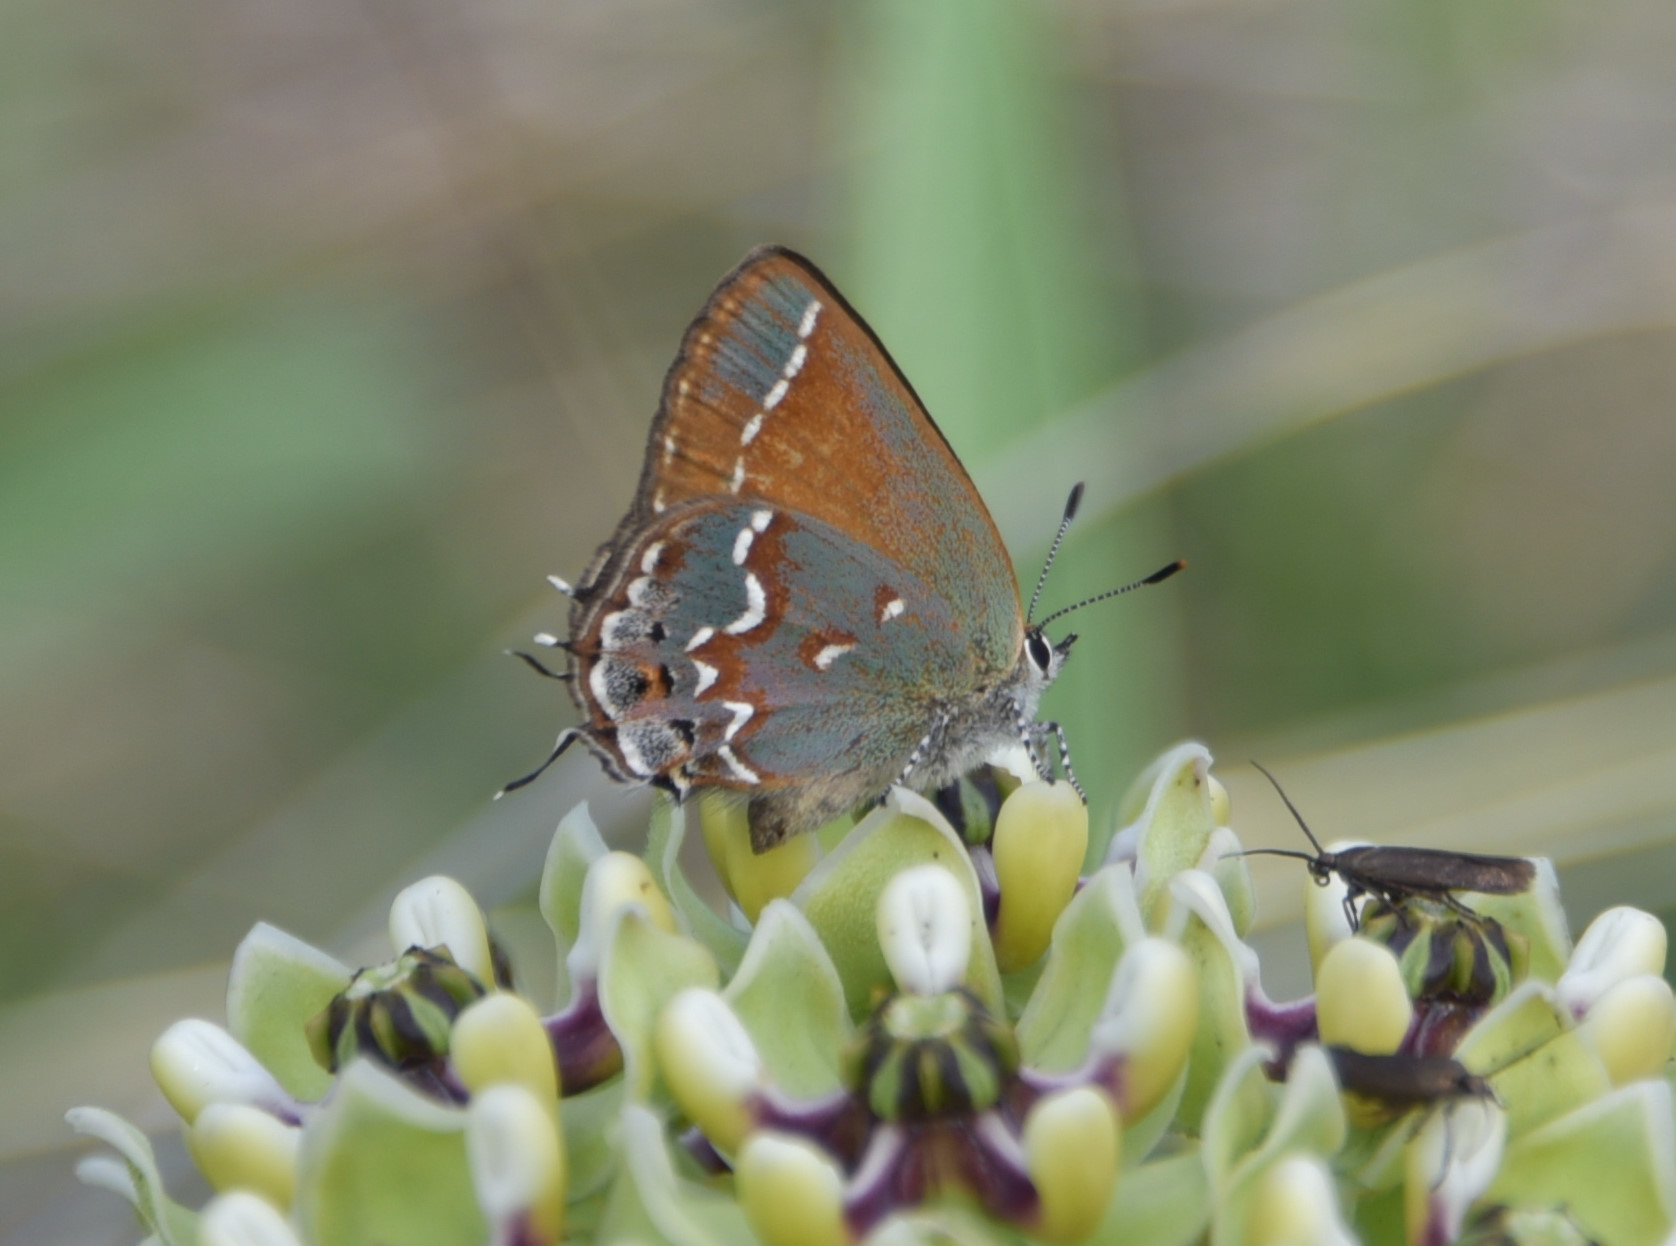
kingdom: Animalia
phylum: Arthropoda
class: Insecta
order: Lepidoptera
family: Lycaenidae
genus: Mitoura
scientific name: Mitoura gryneus
